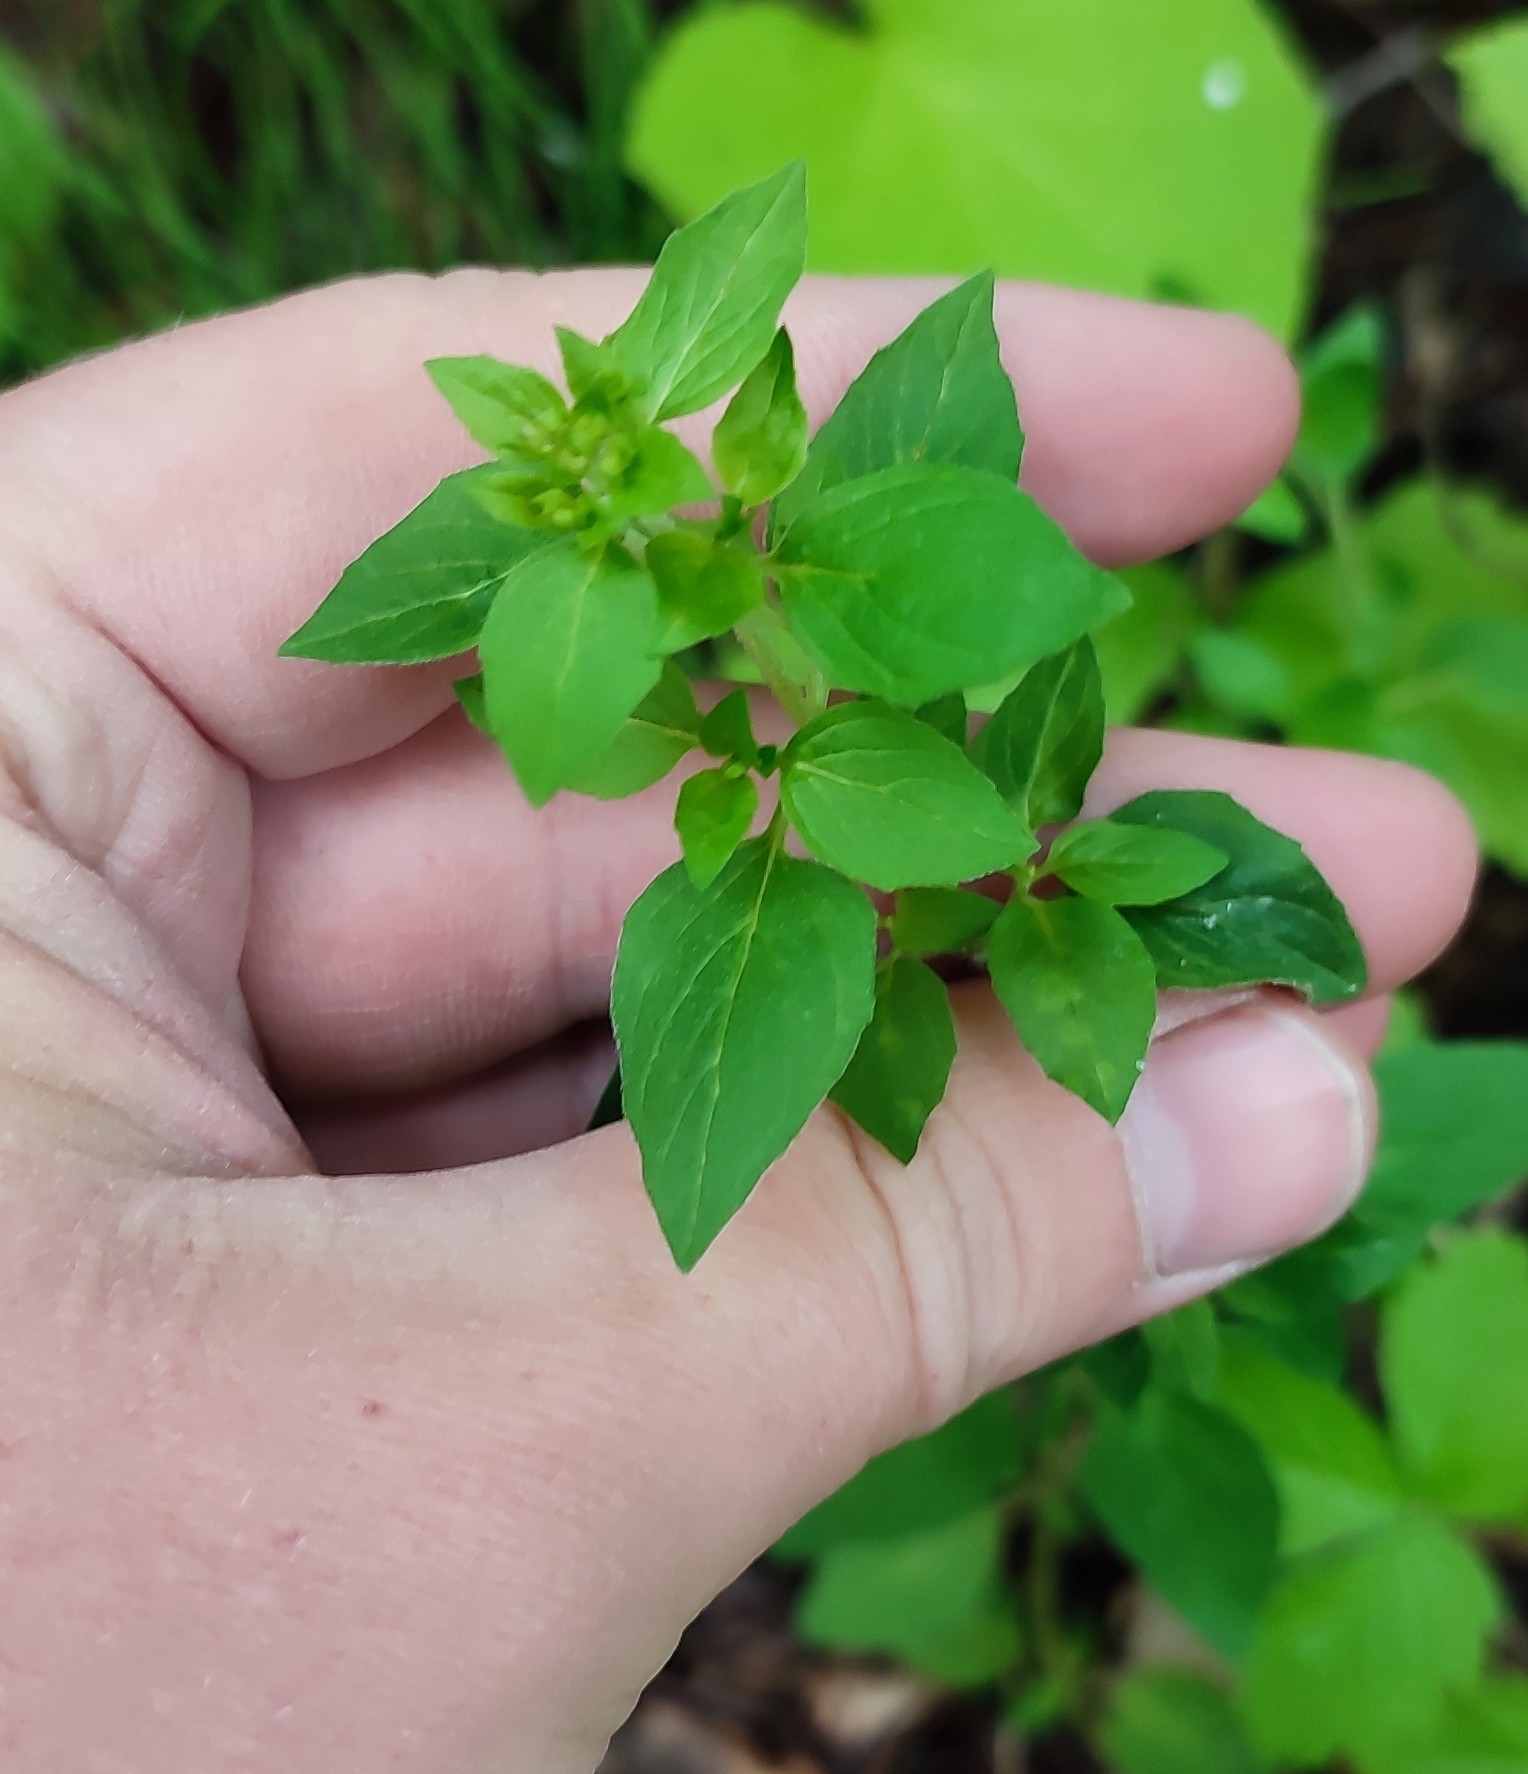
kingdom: Plantae
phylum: Tracheophyta
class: Magnoliopsida
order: Lamiales
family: Lamiaceae
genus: Origanum
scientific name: Origanum vulgare
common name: Wild marjoram
